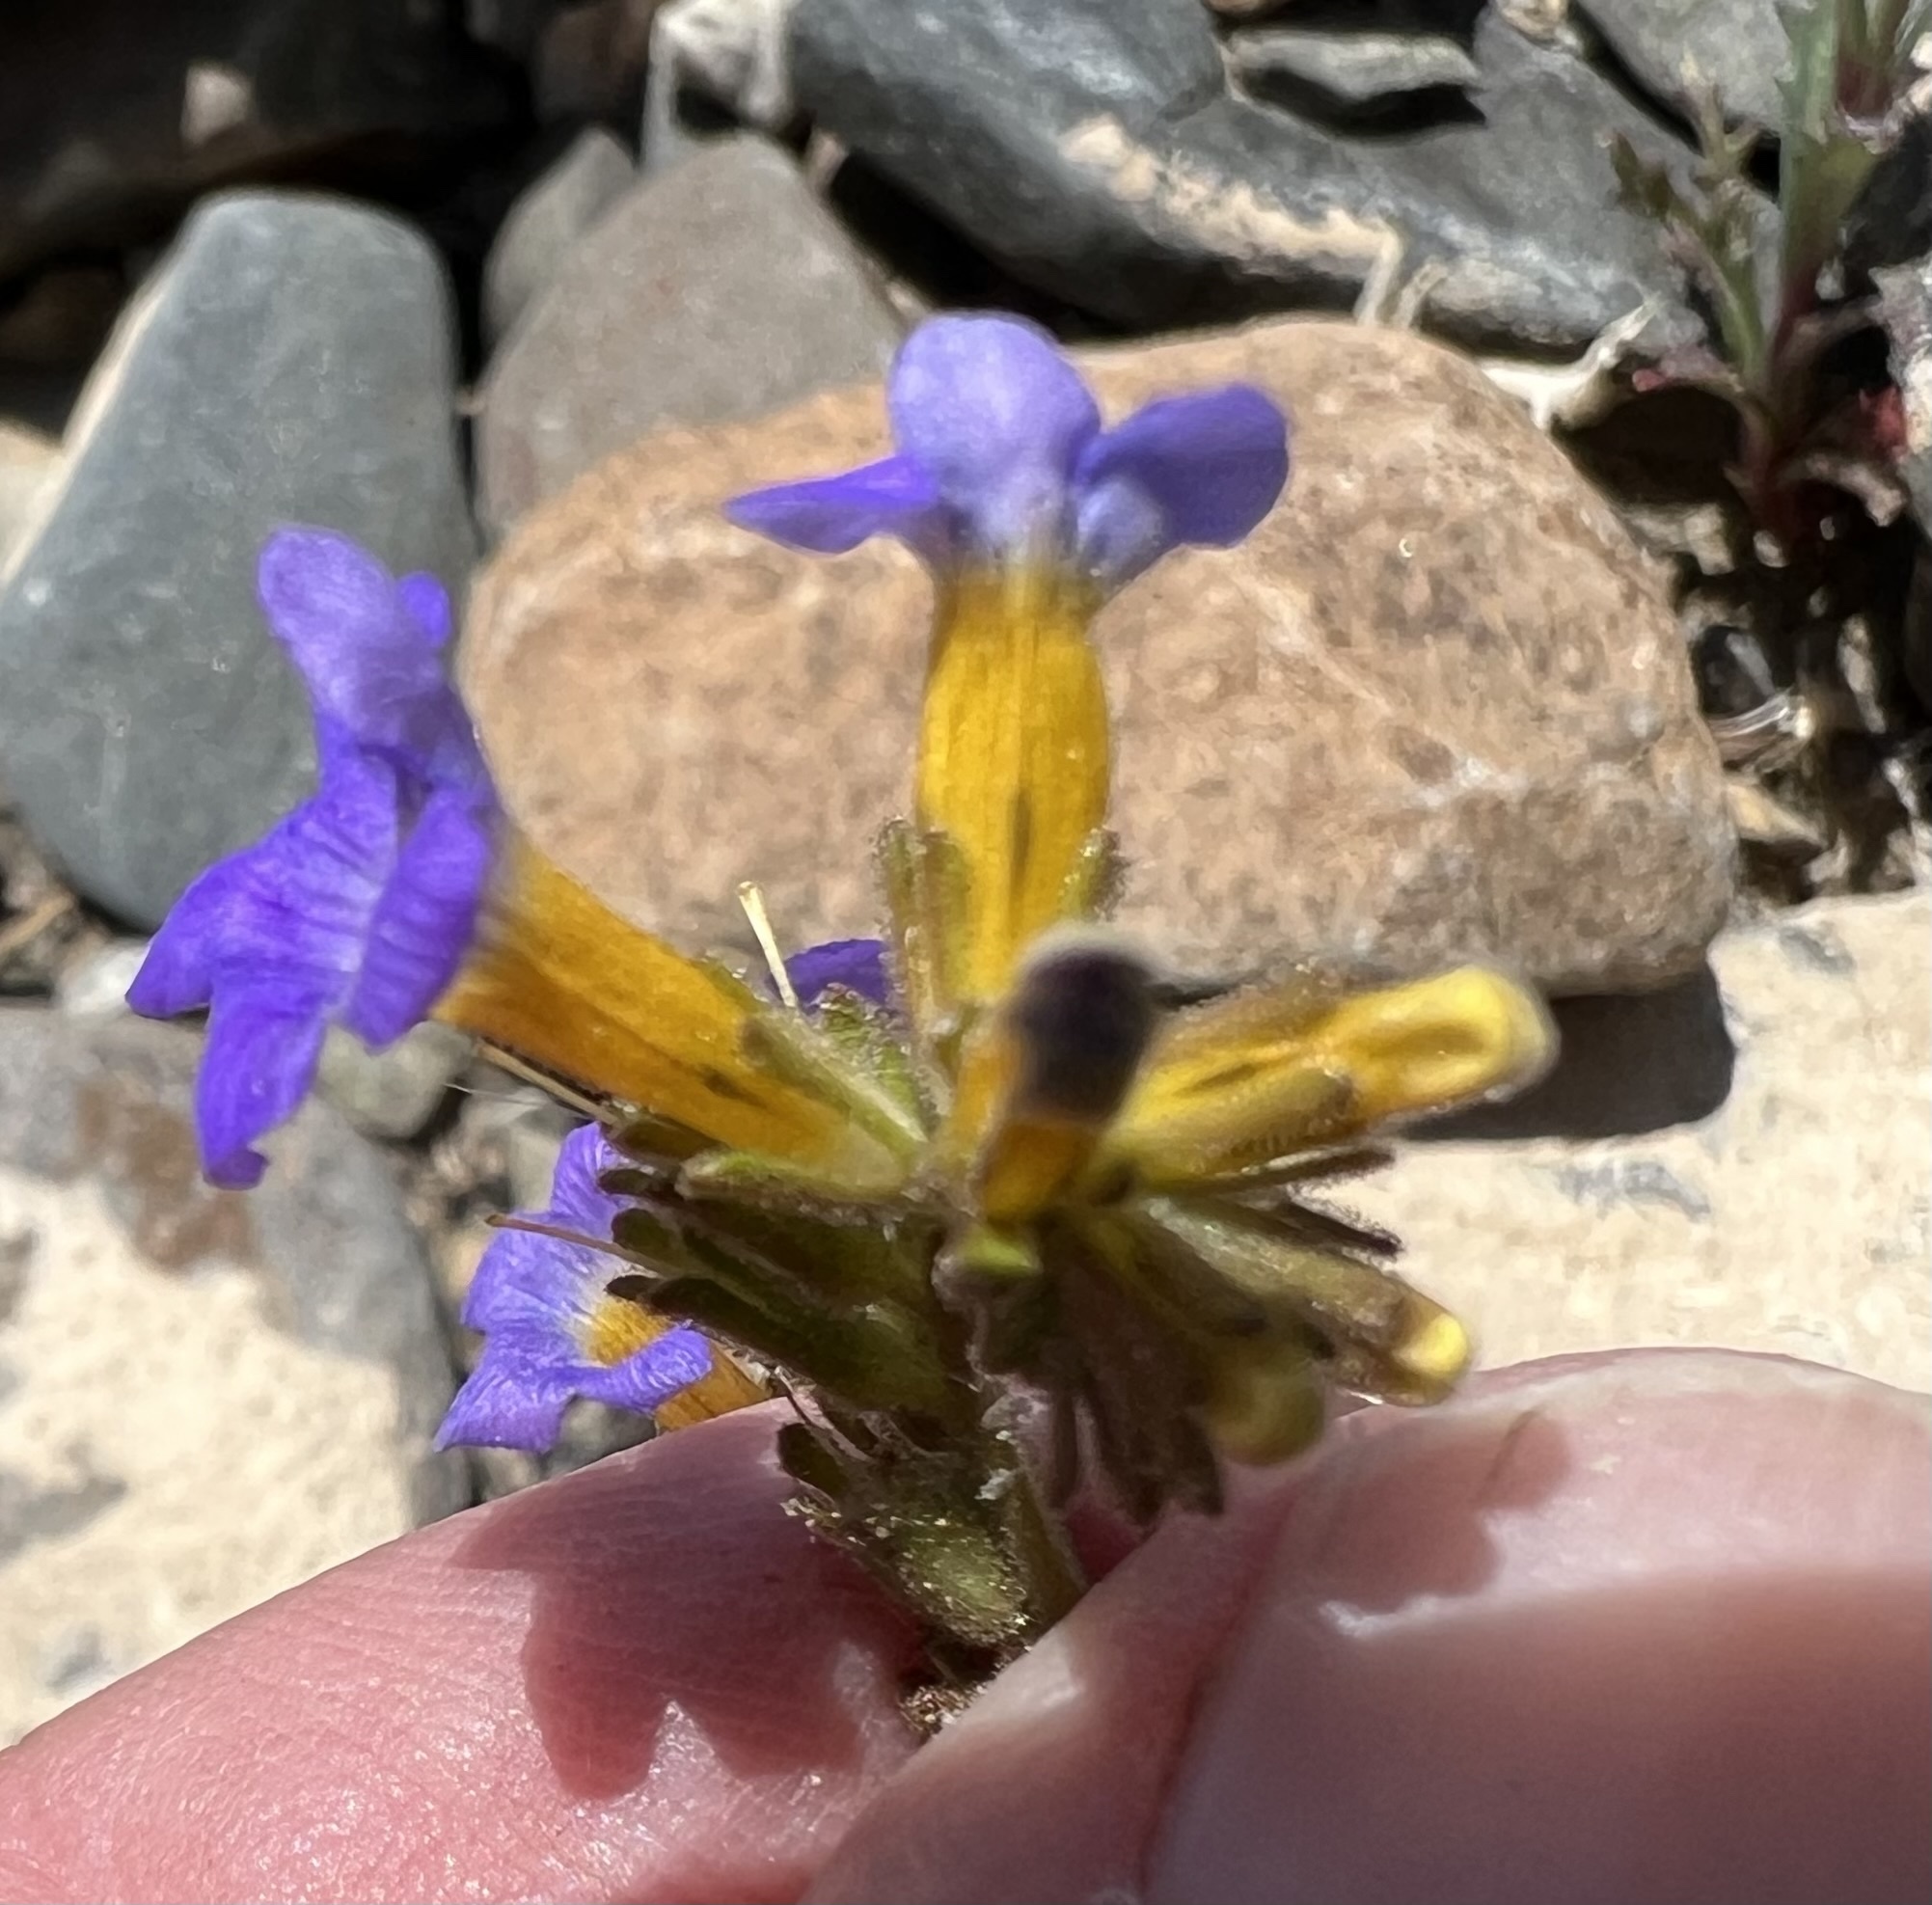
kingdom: Plantae
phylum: Tracheophyta
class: Magnoliopsida
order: Boraginales
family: Hydrophyllaceae
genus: Phacelia
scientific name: Phacelia fremontii
